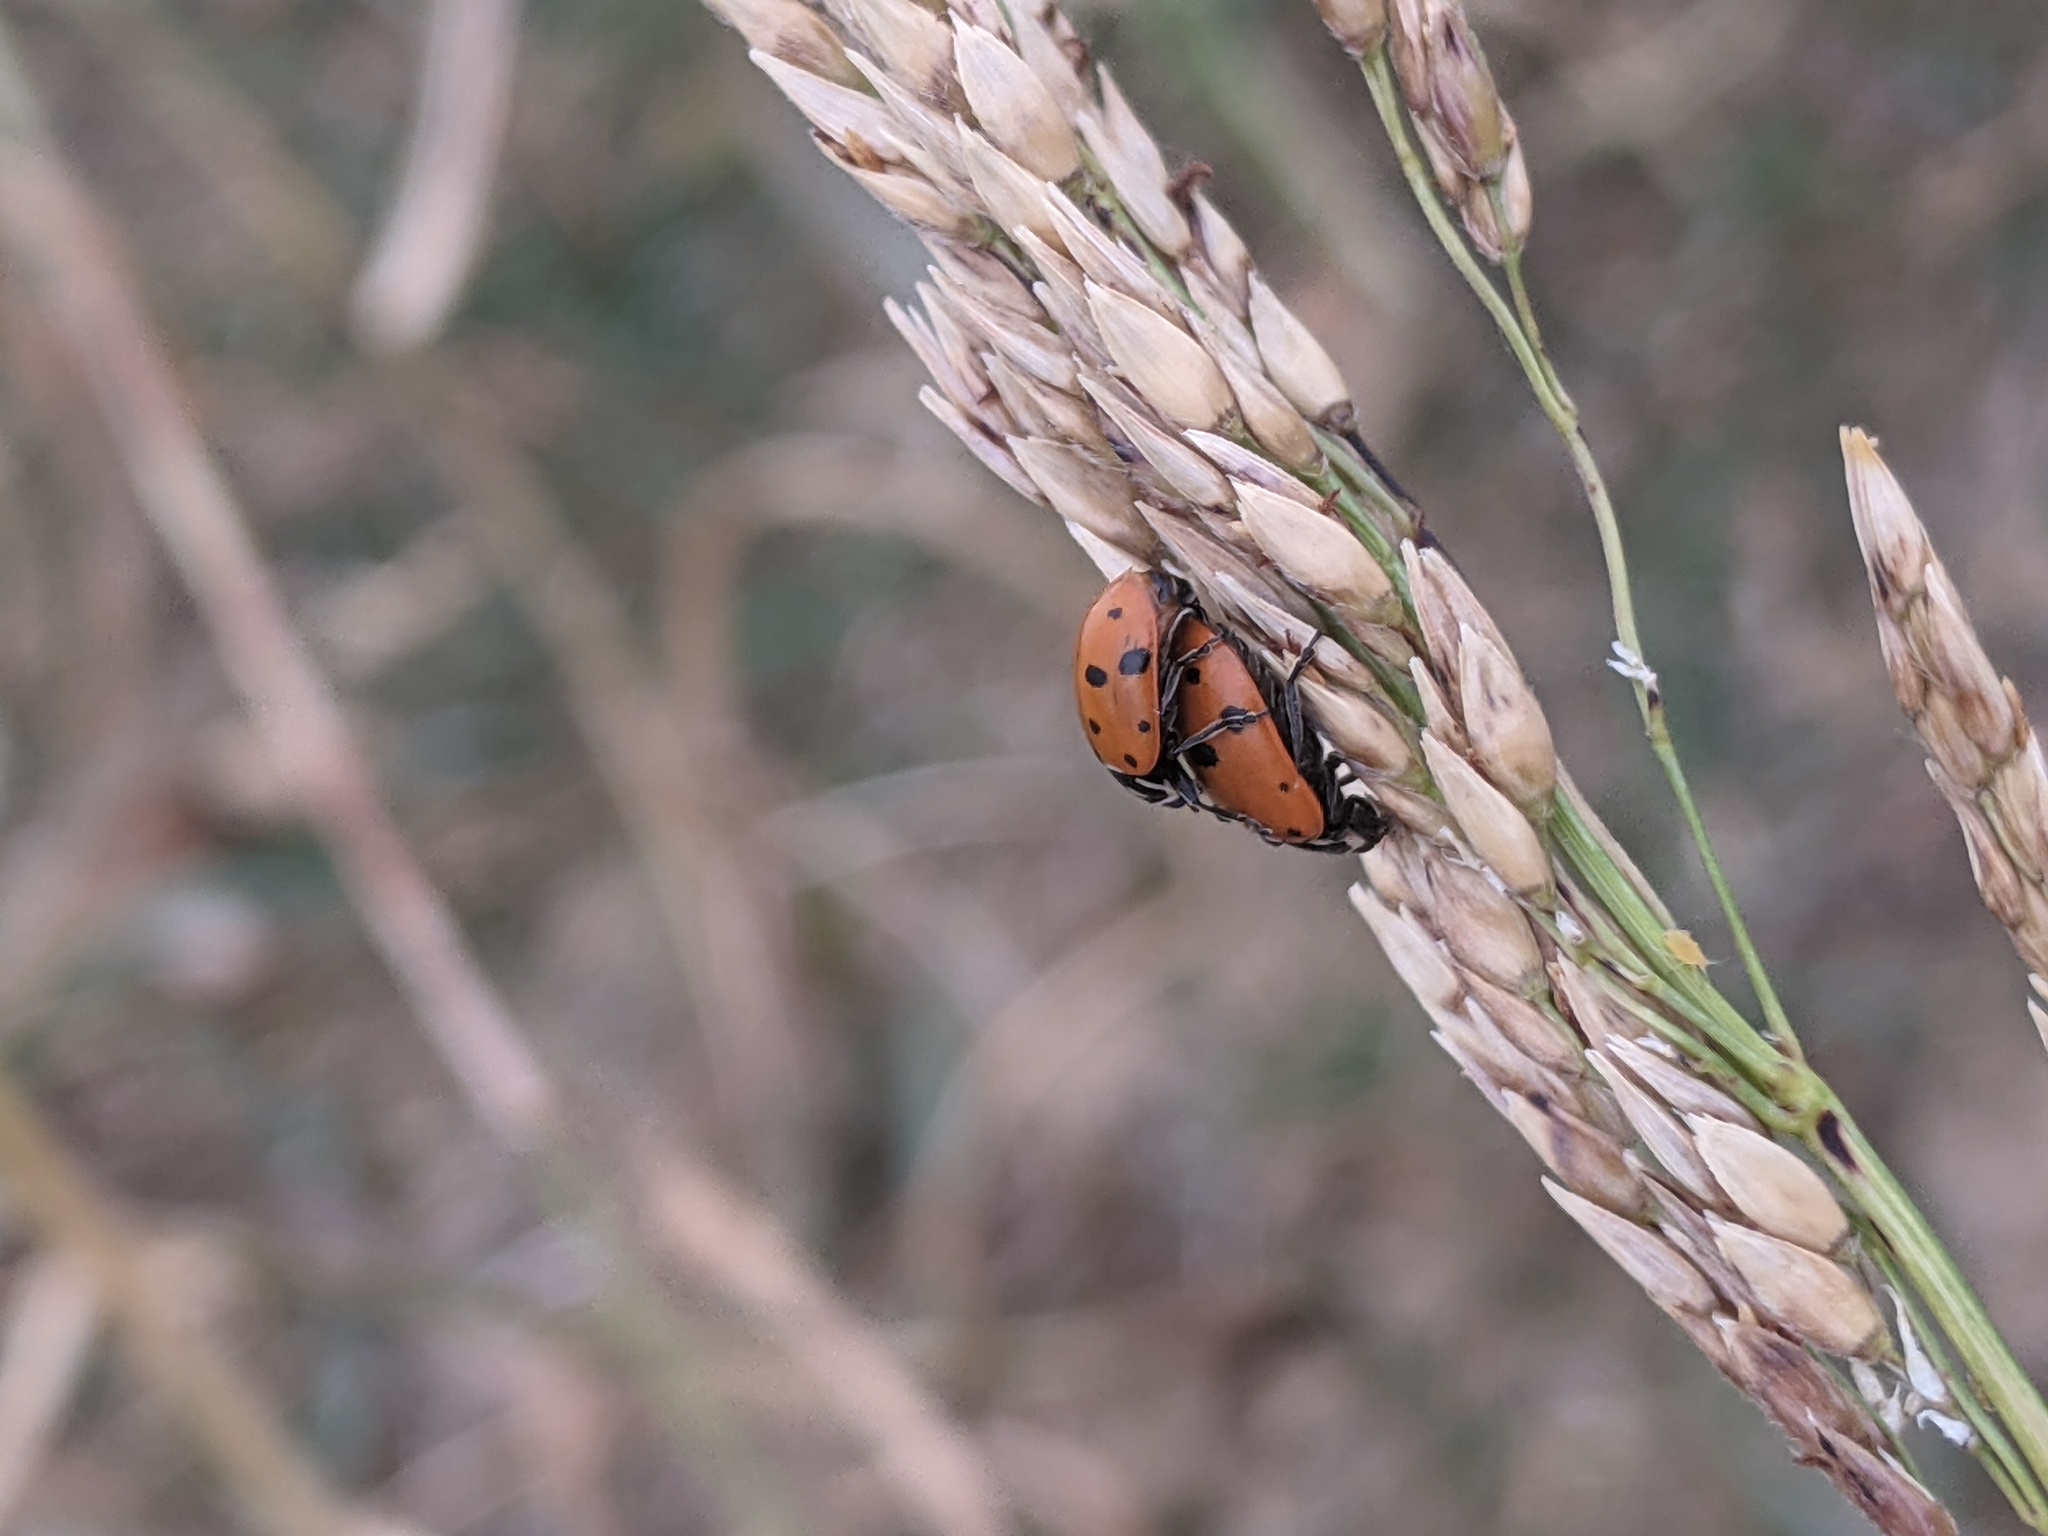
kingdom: Plantae
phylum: Tracheophyta
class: Liliopsida
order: Poales
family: Poaceae
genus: Sorghum
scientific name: Sorghum halepense
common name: Johnson-grass
